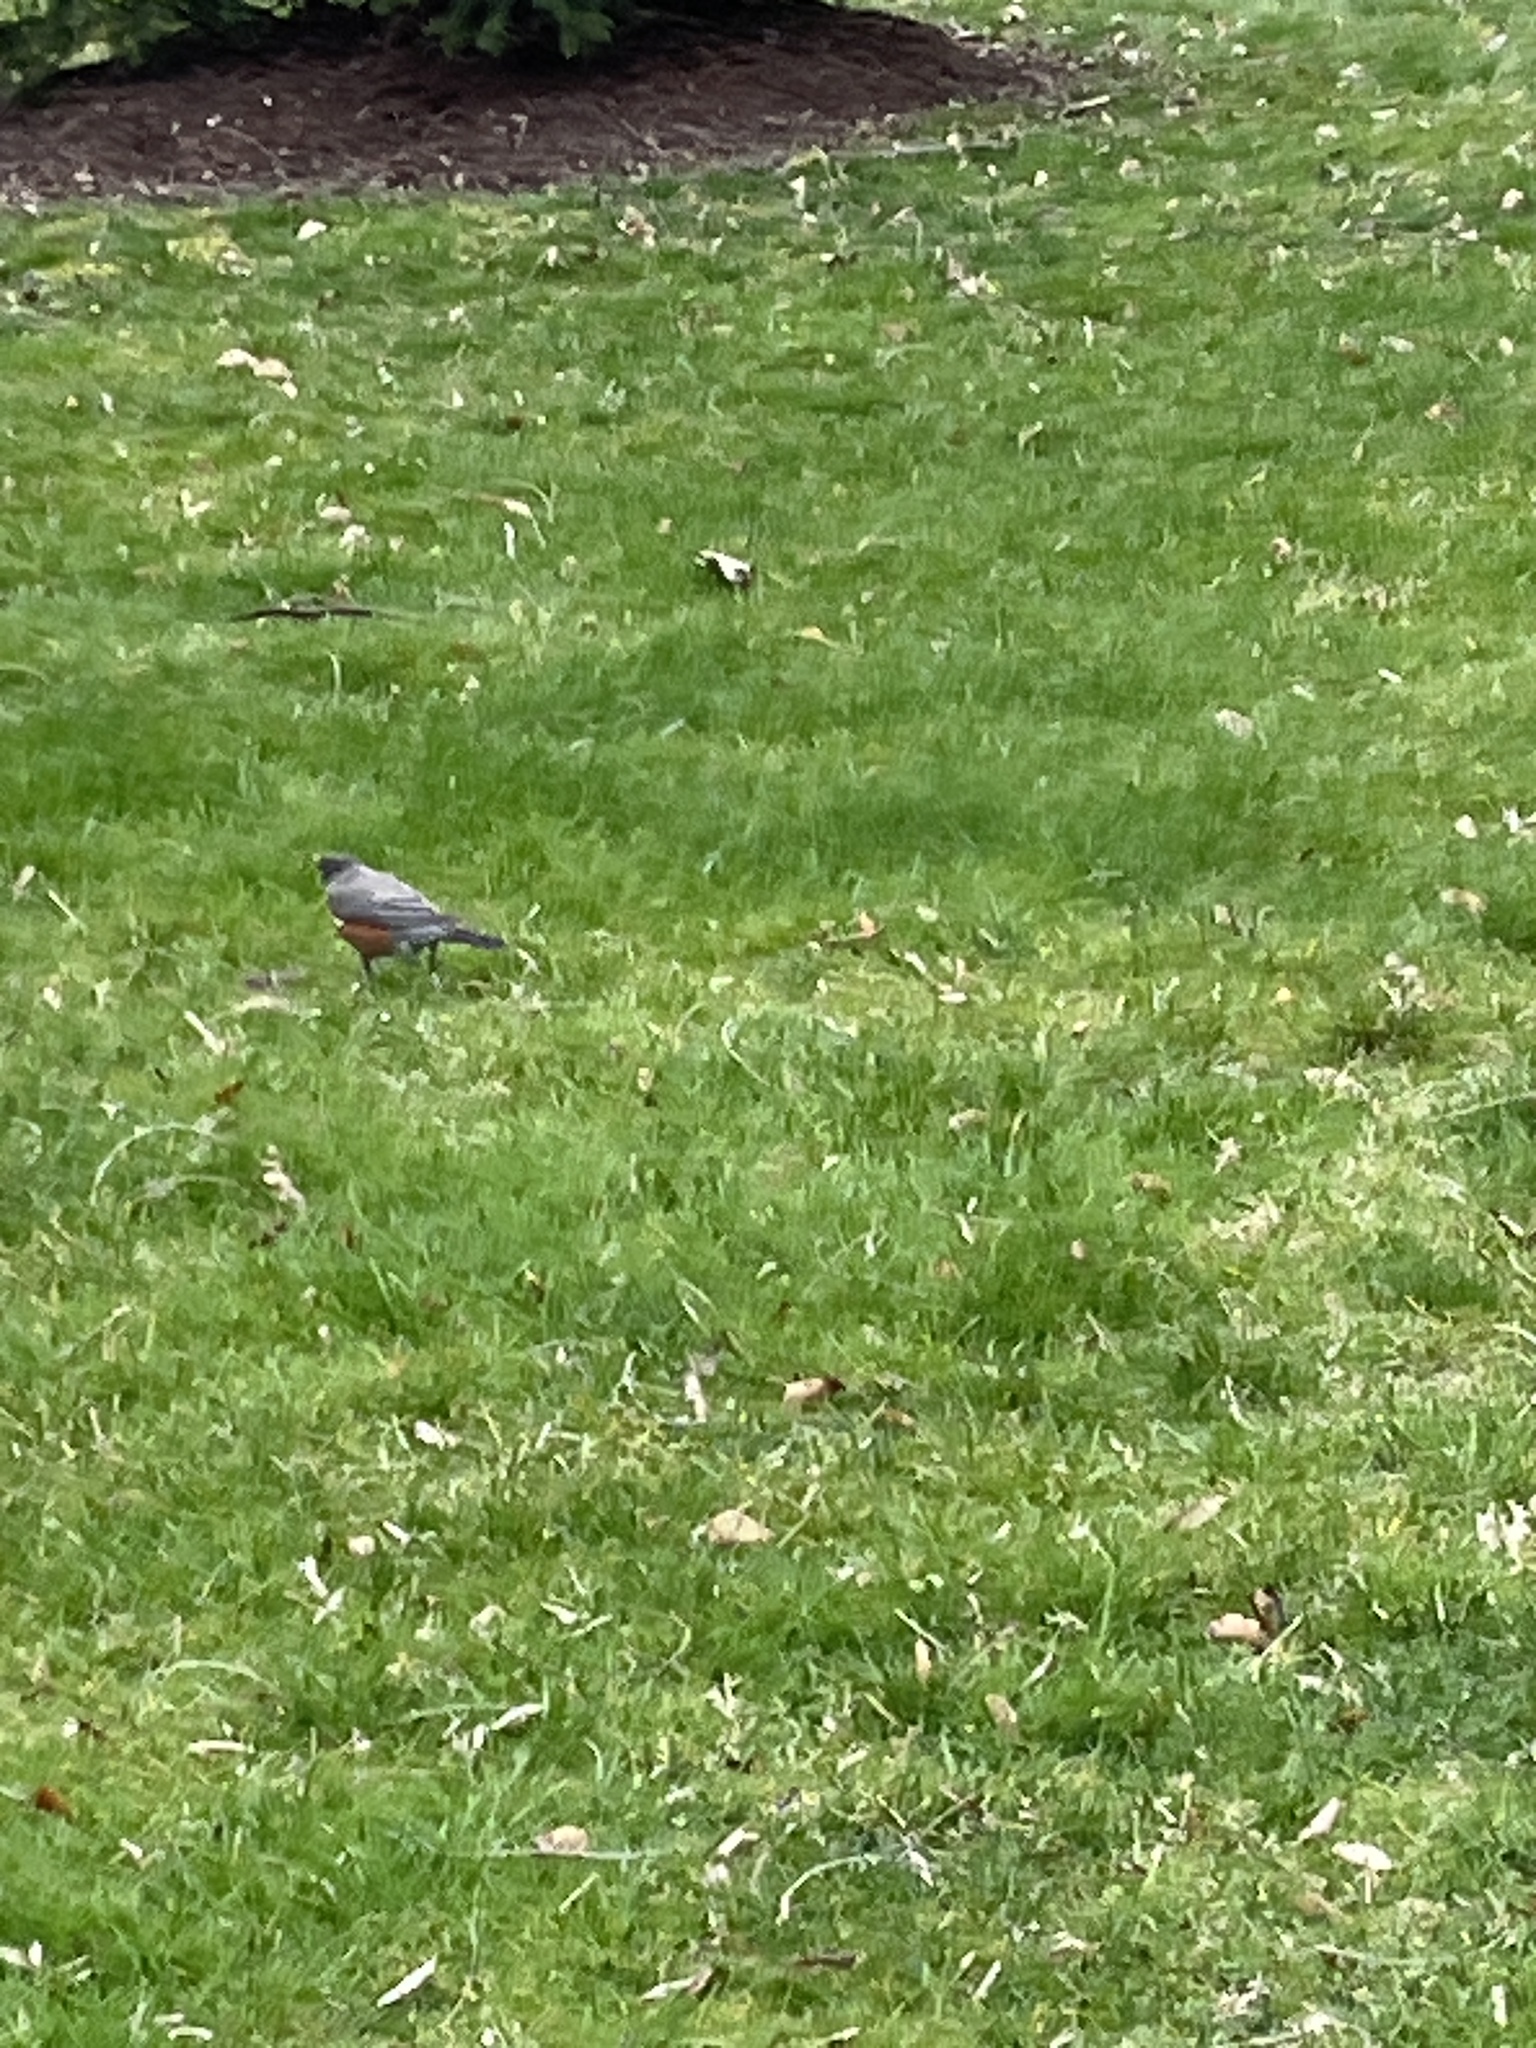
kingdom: Animalia
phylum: Chordata
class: Aves
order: Passeriformes
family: Turdidae
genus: Turdus
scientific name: Turdus migratorius
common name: American robin
